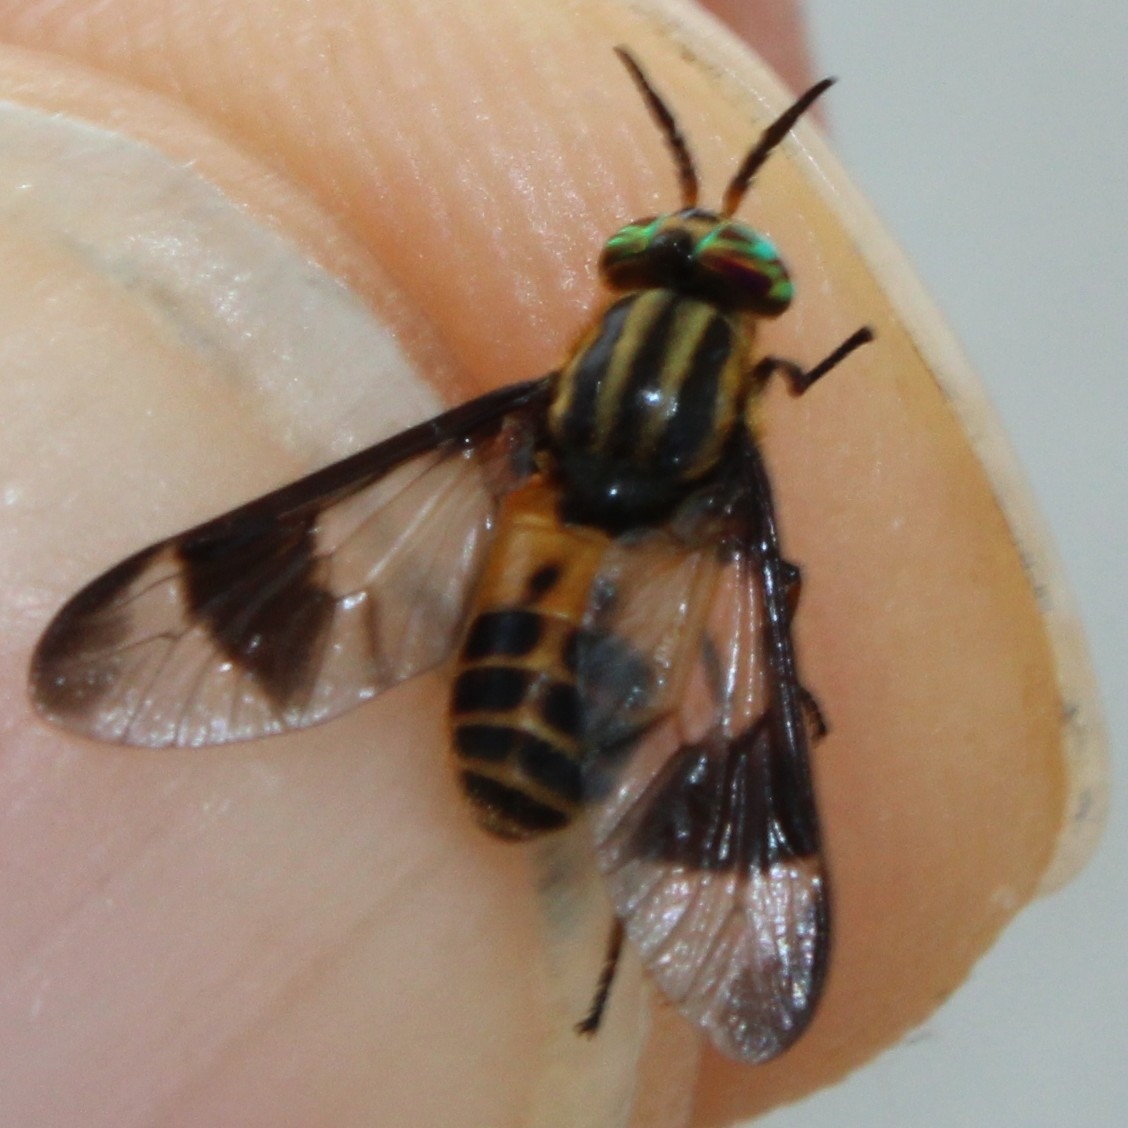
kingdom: Animalia
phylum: Arthropoda
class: Insecta
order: Diptera
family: Tabanidae
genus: Chrysops
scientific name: Chrysops geminatus
